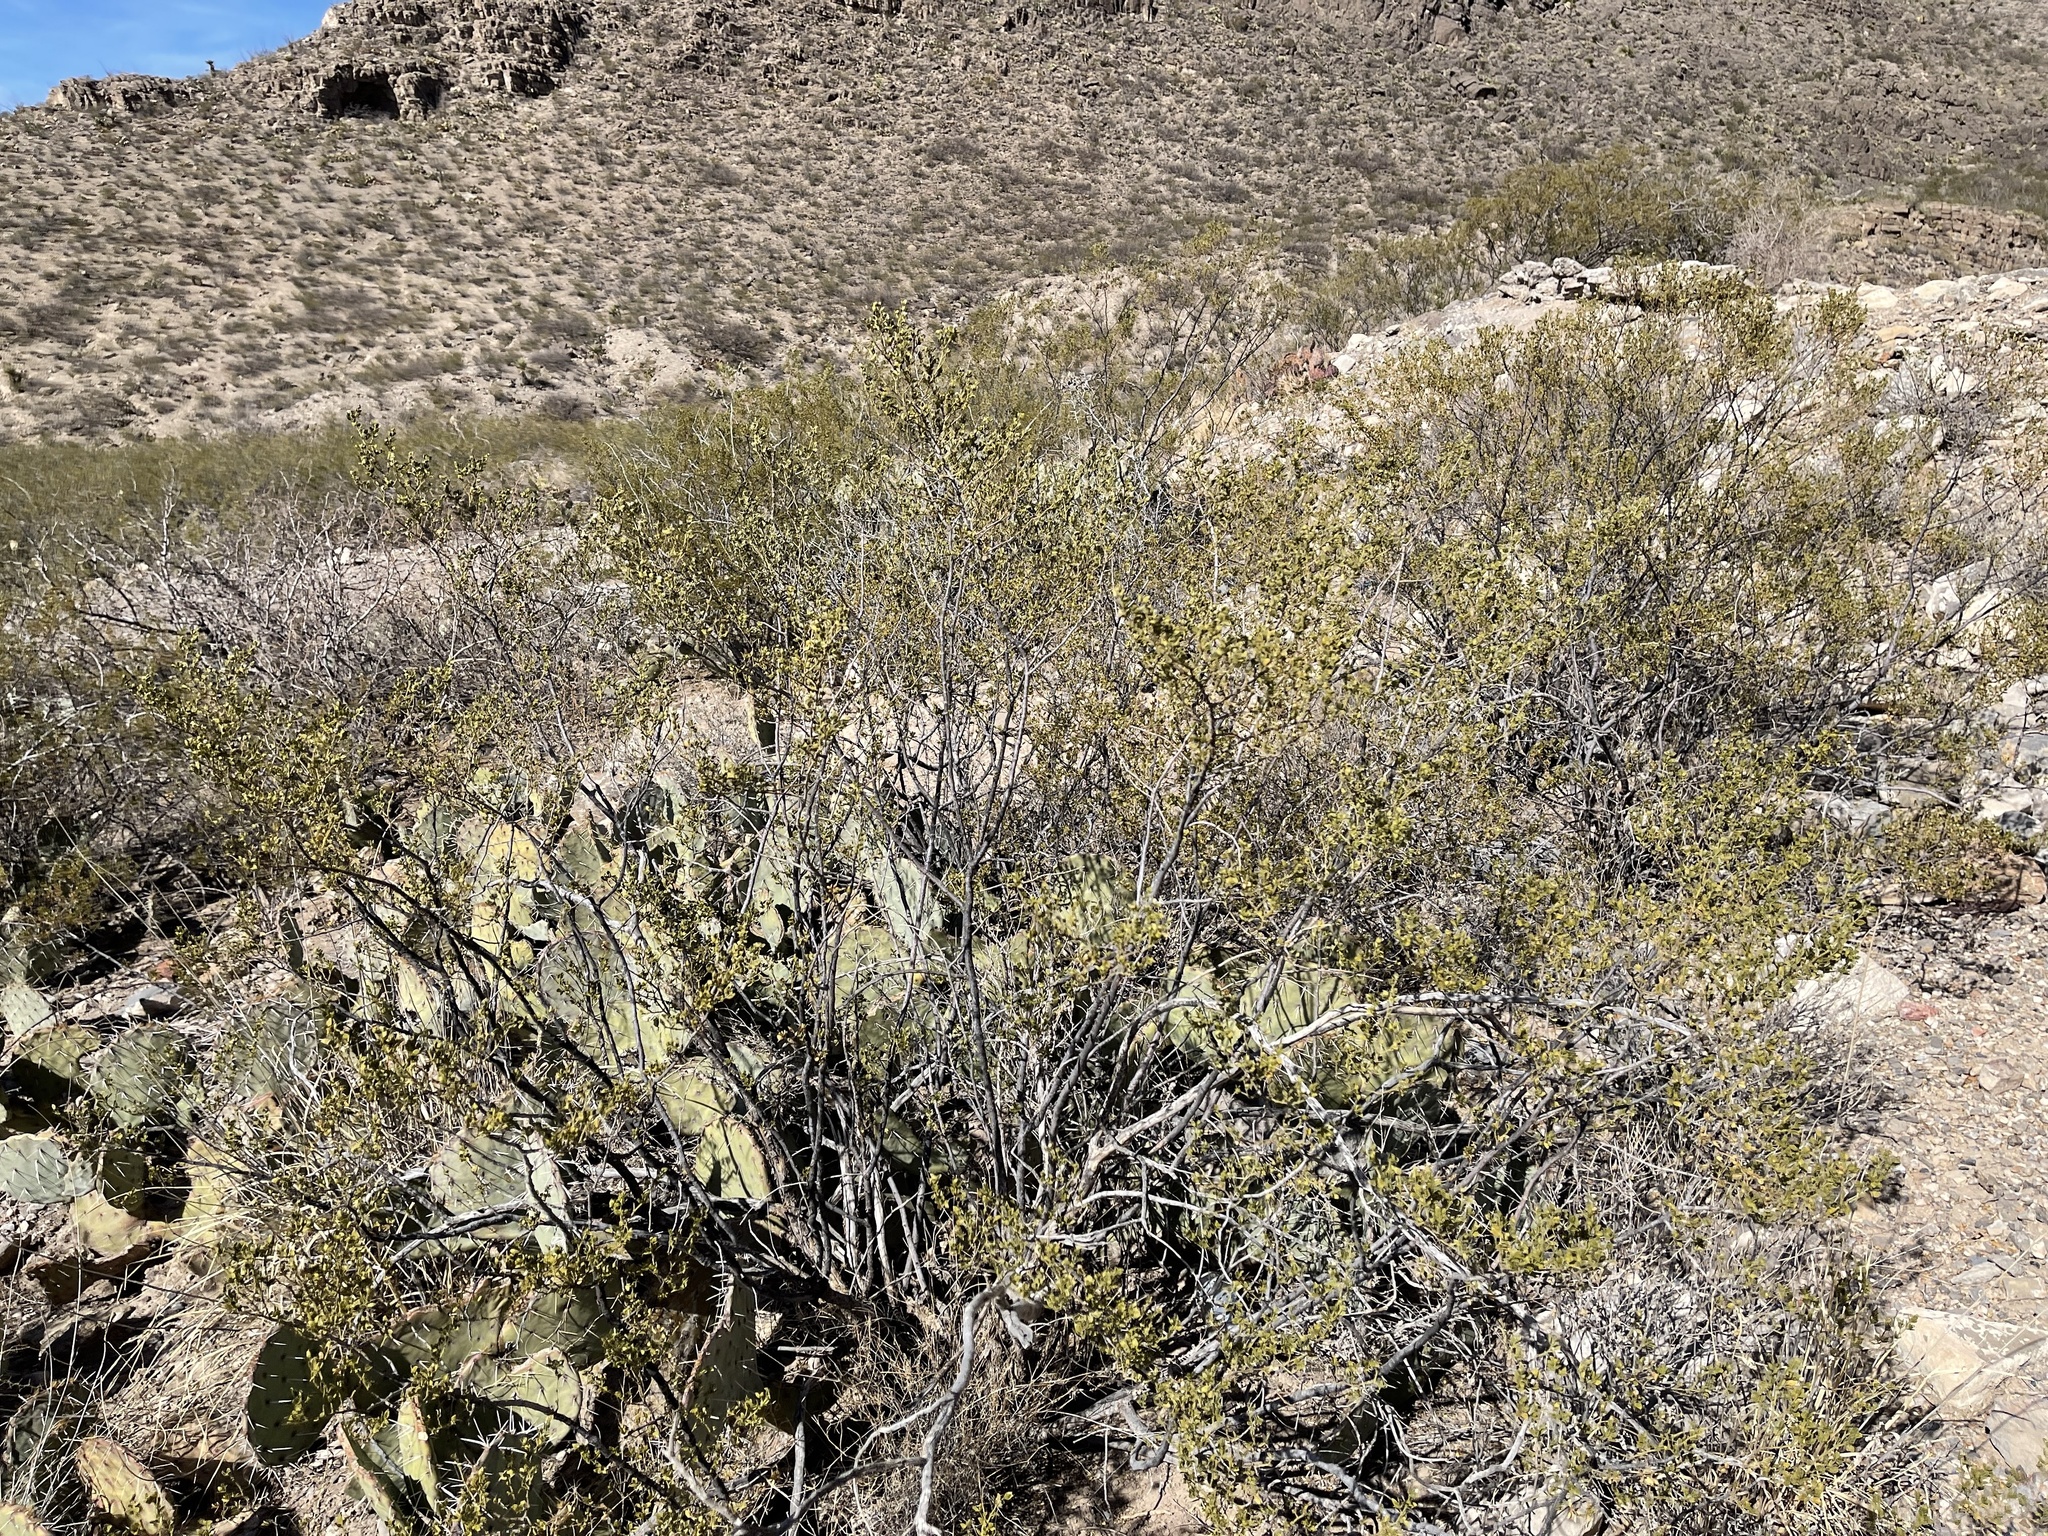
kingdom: Plantae
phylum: Tracheophyta
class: Magnoliopsida
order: Zygophyllales
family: Zygophyllaceae
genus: Larrea
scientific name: Larrea tridentata
